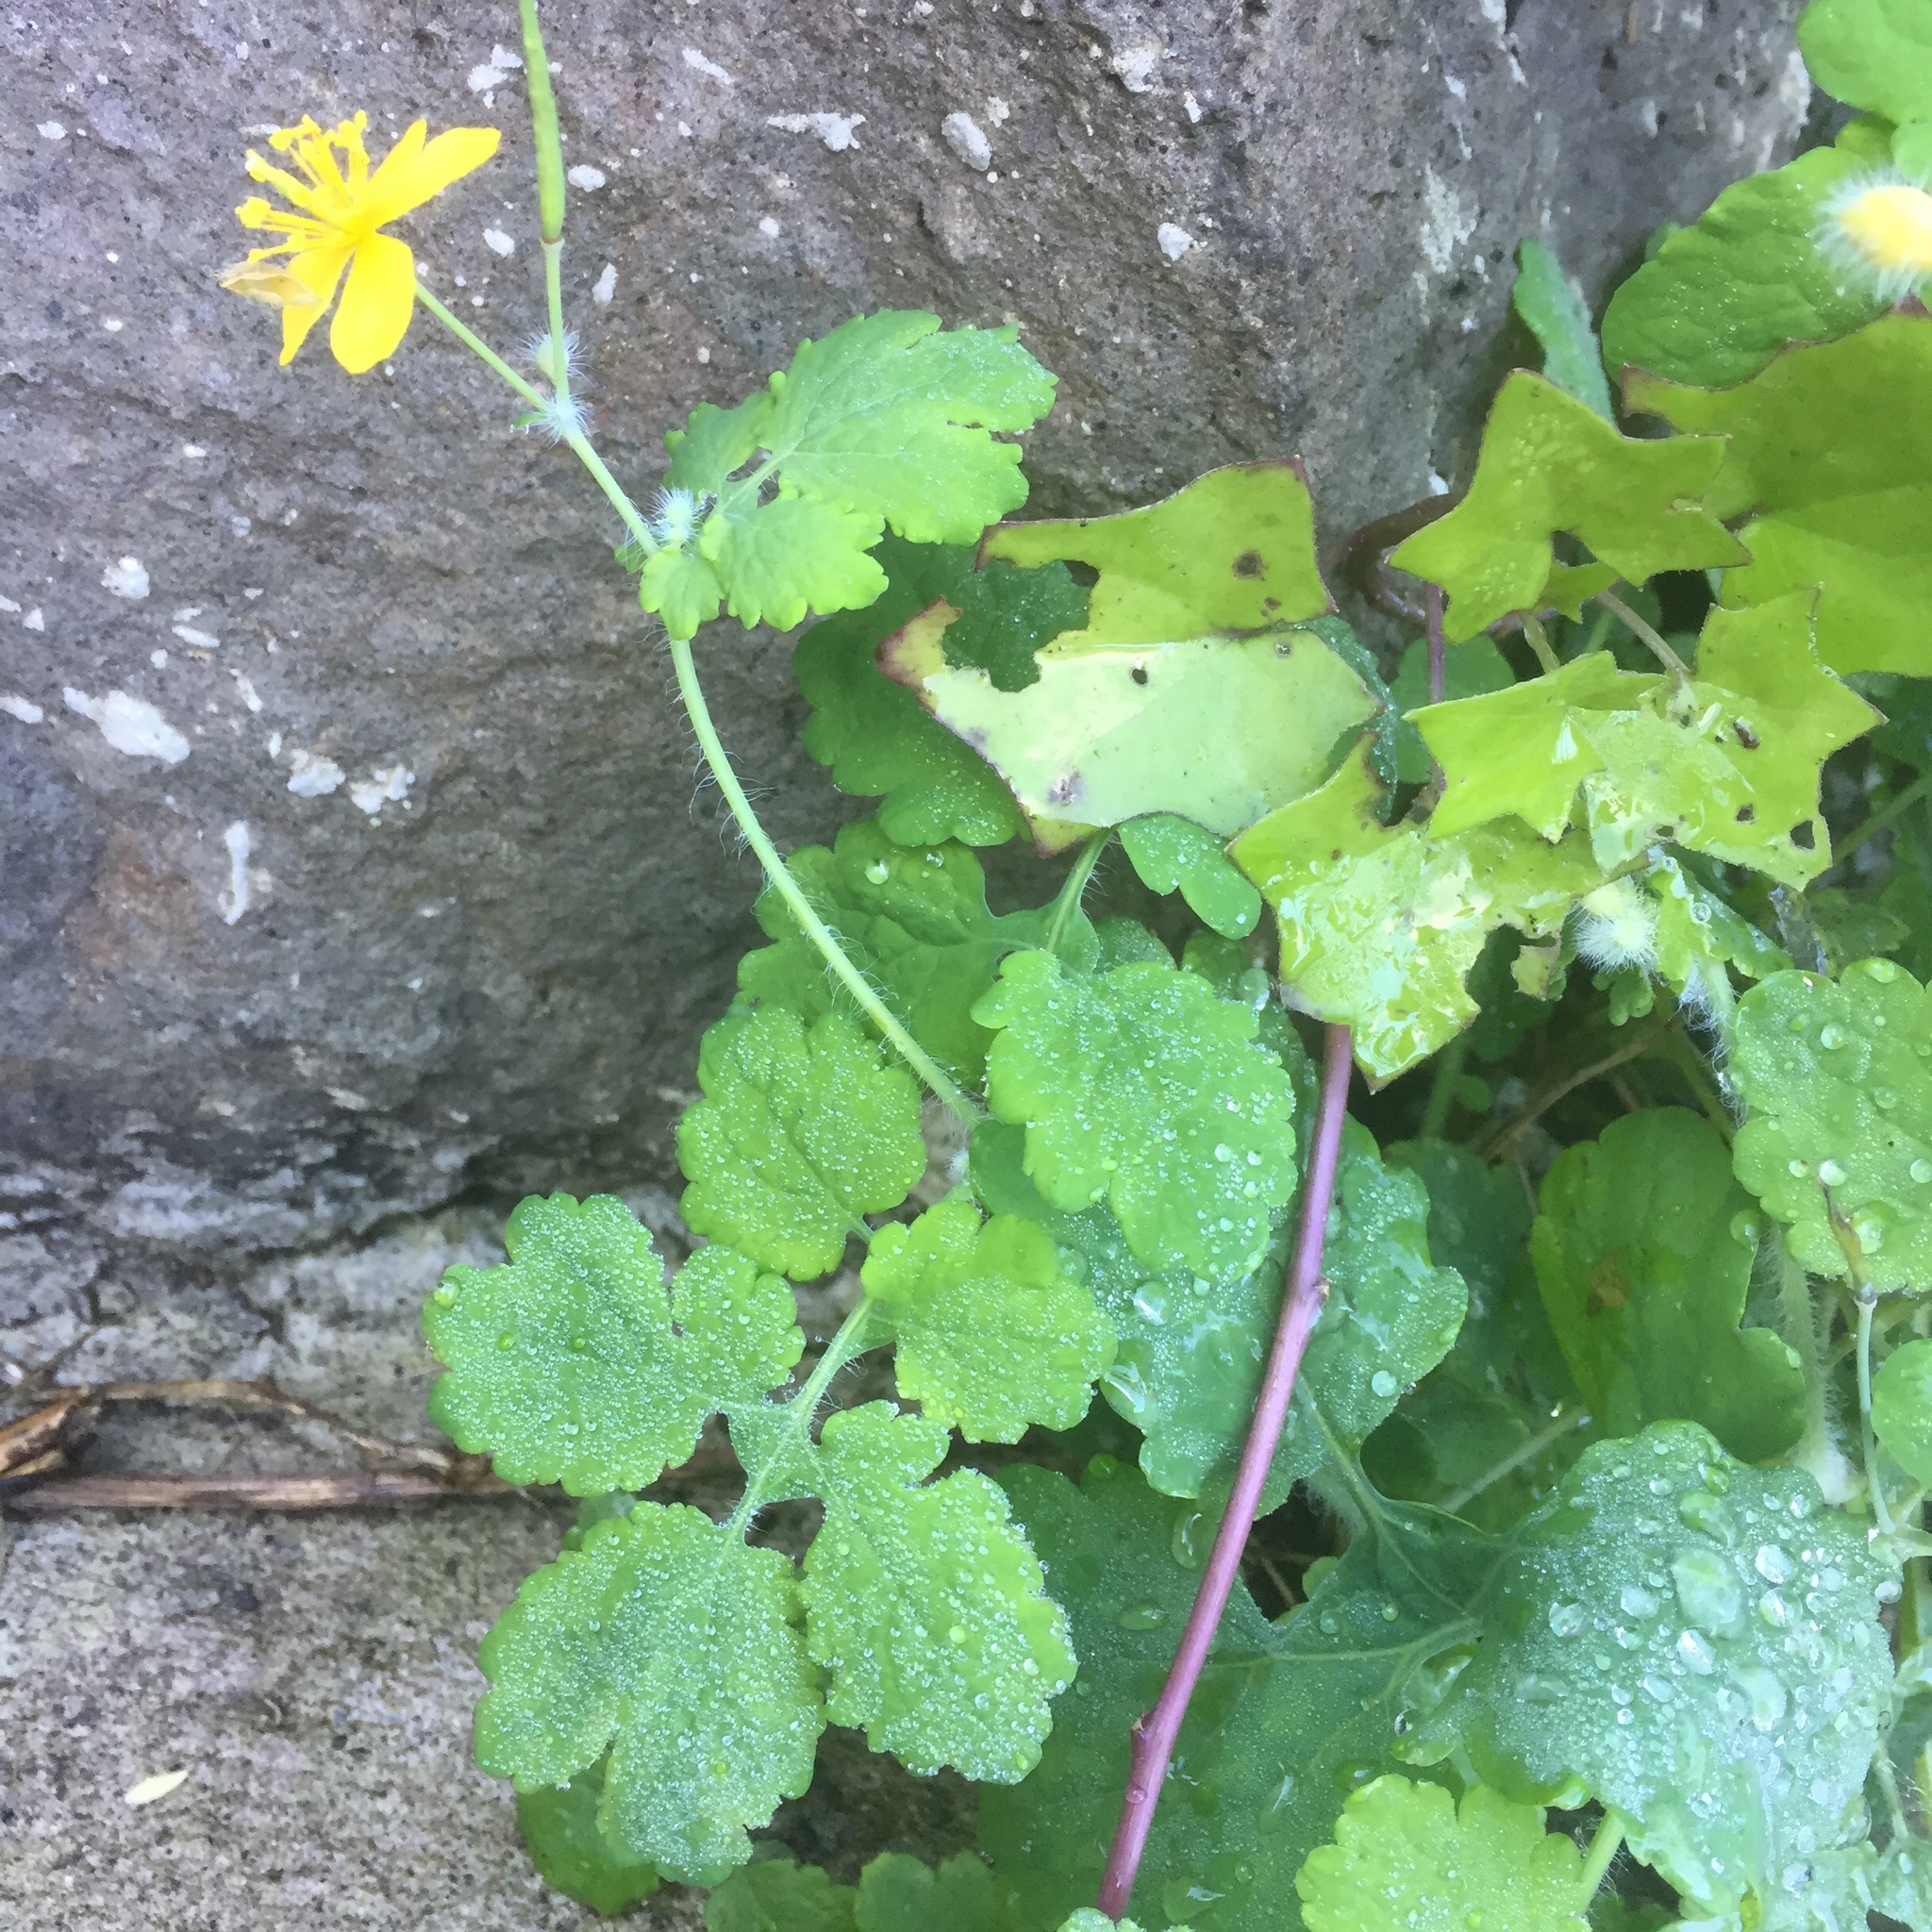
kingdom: Plantae
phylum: Tracheophyta
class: Magnoliopsida
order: Ranunculales
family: Papaveraceae
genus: Chelidonium
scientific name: Chelidonium majus
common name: Greater celandine
